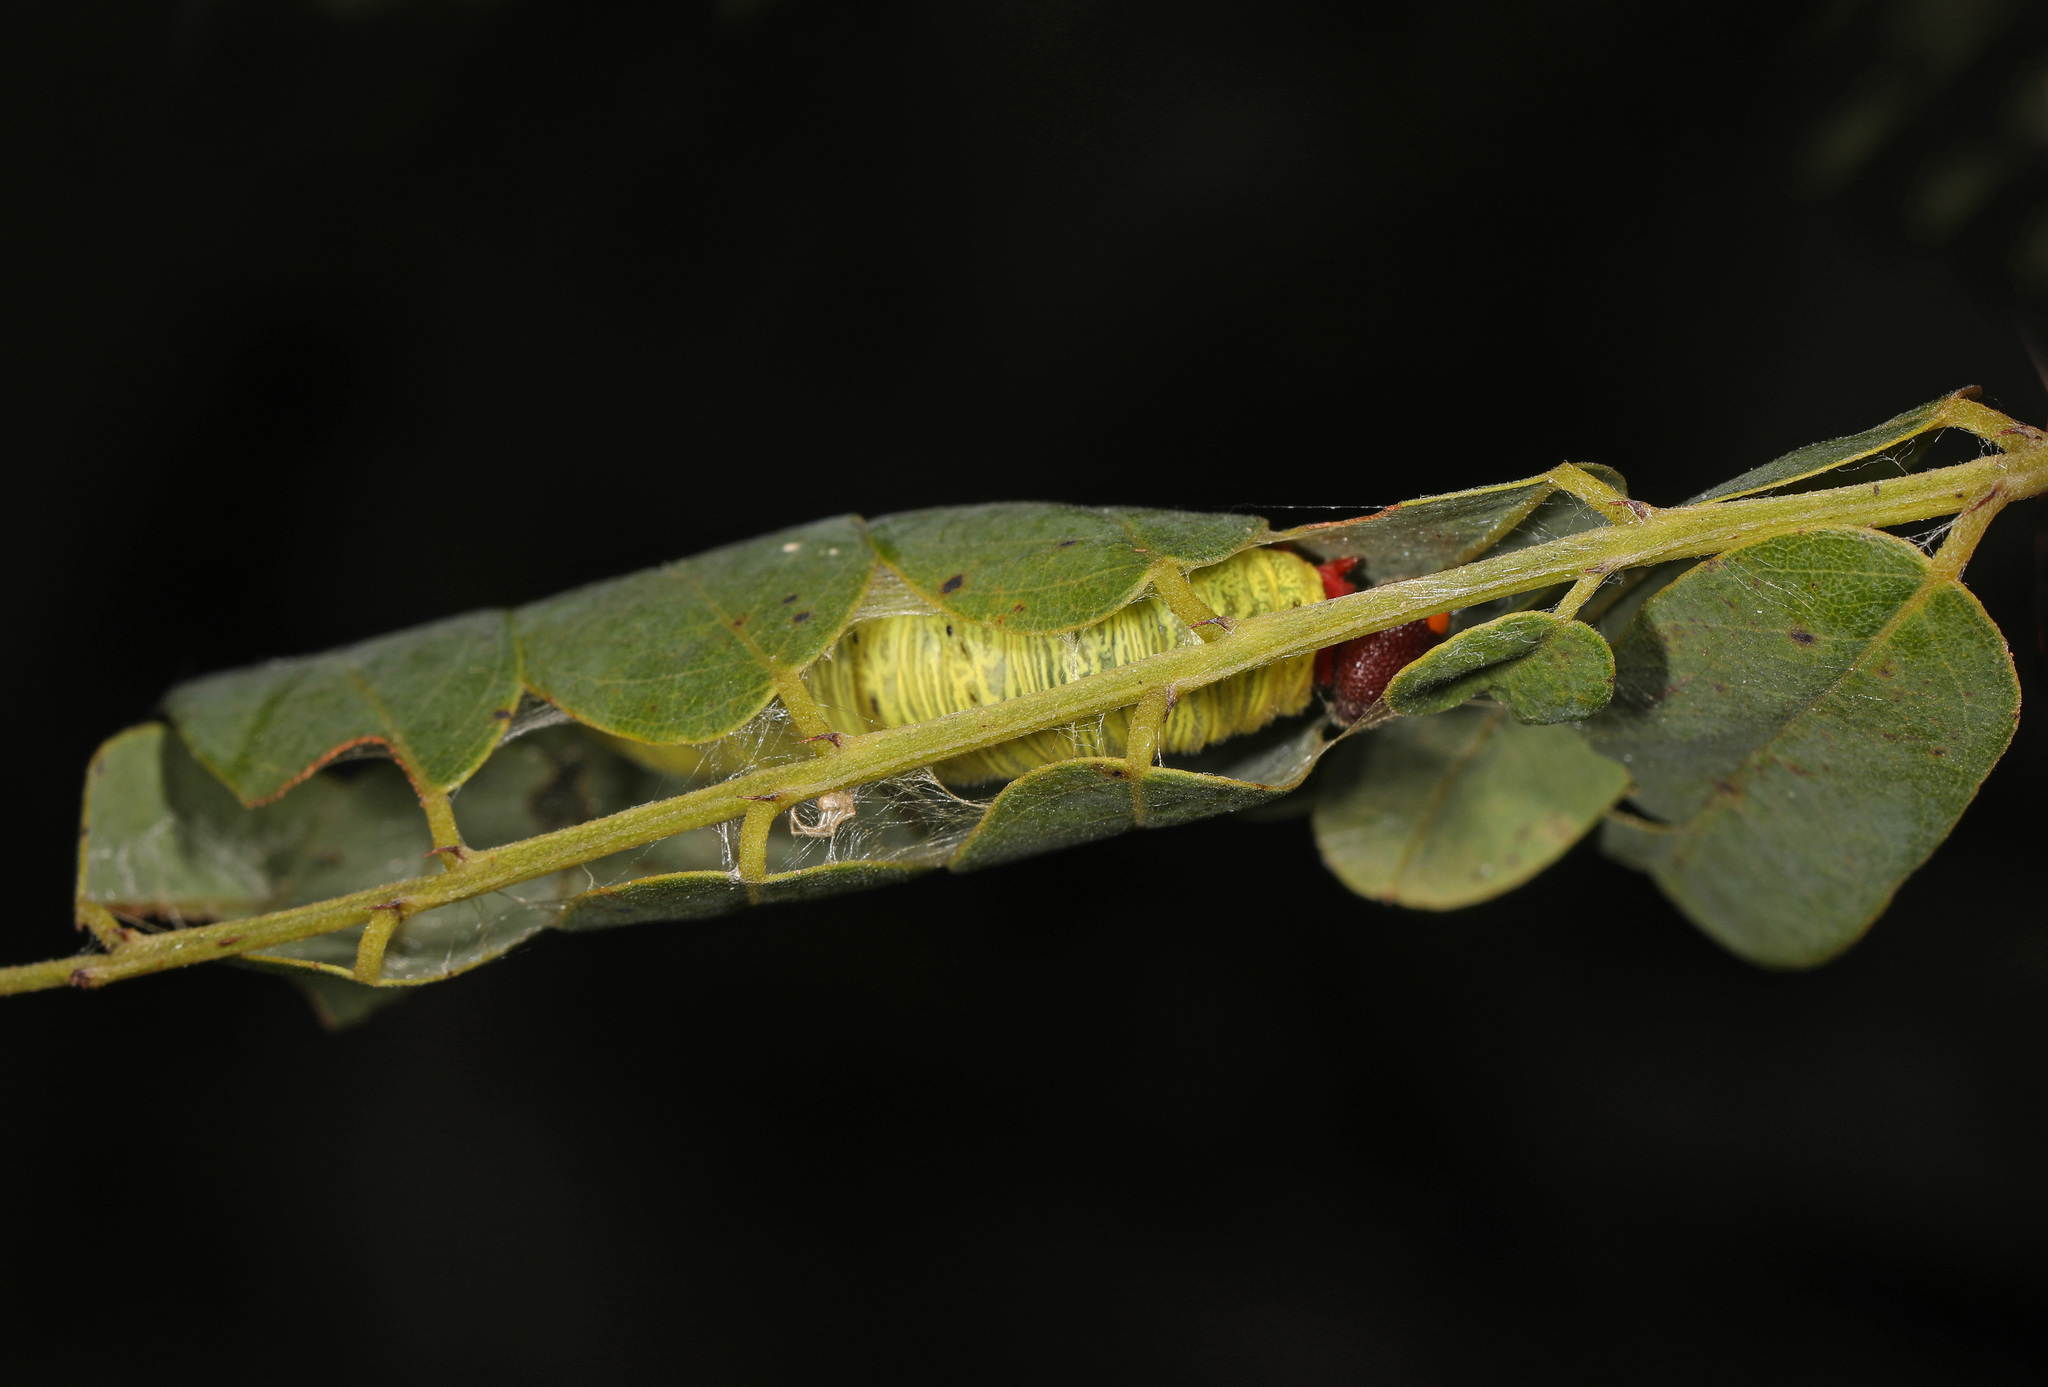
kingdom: Animalia
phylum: Arthropoda
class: Insecta
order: Lepidoptera
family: Hesperiidae
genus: Epargyreus
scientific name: Epargyreus clarus
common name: Silver-spotted skipper
